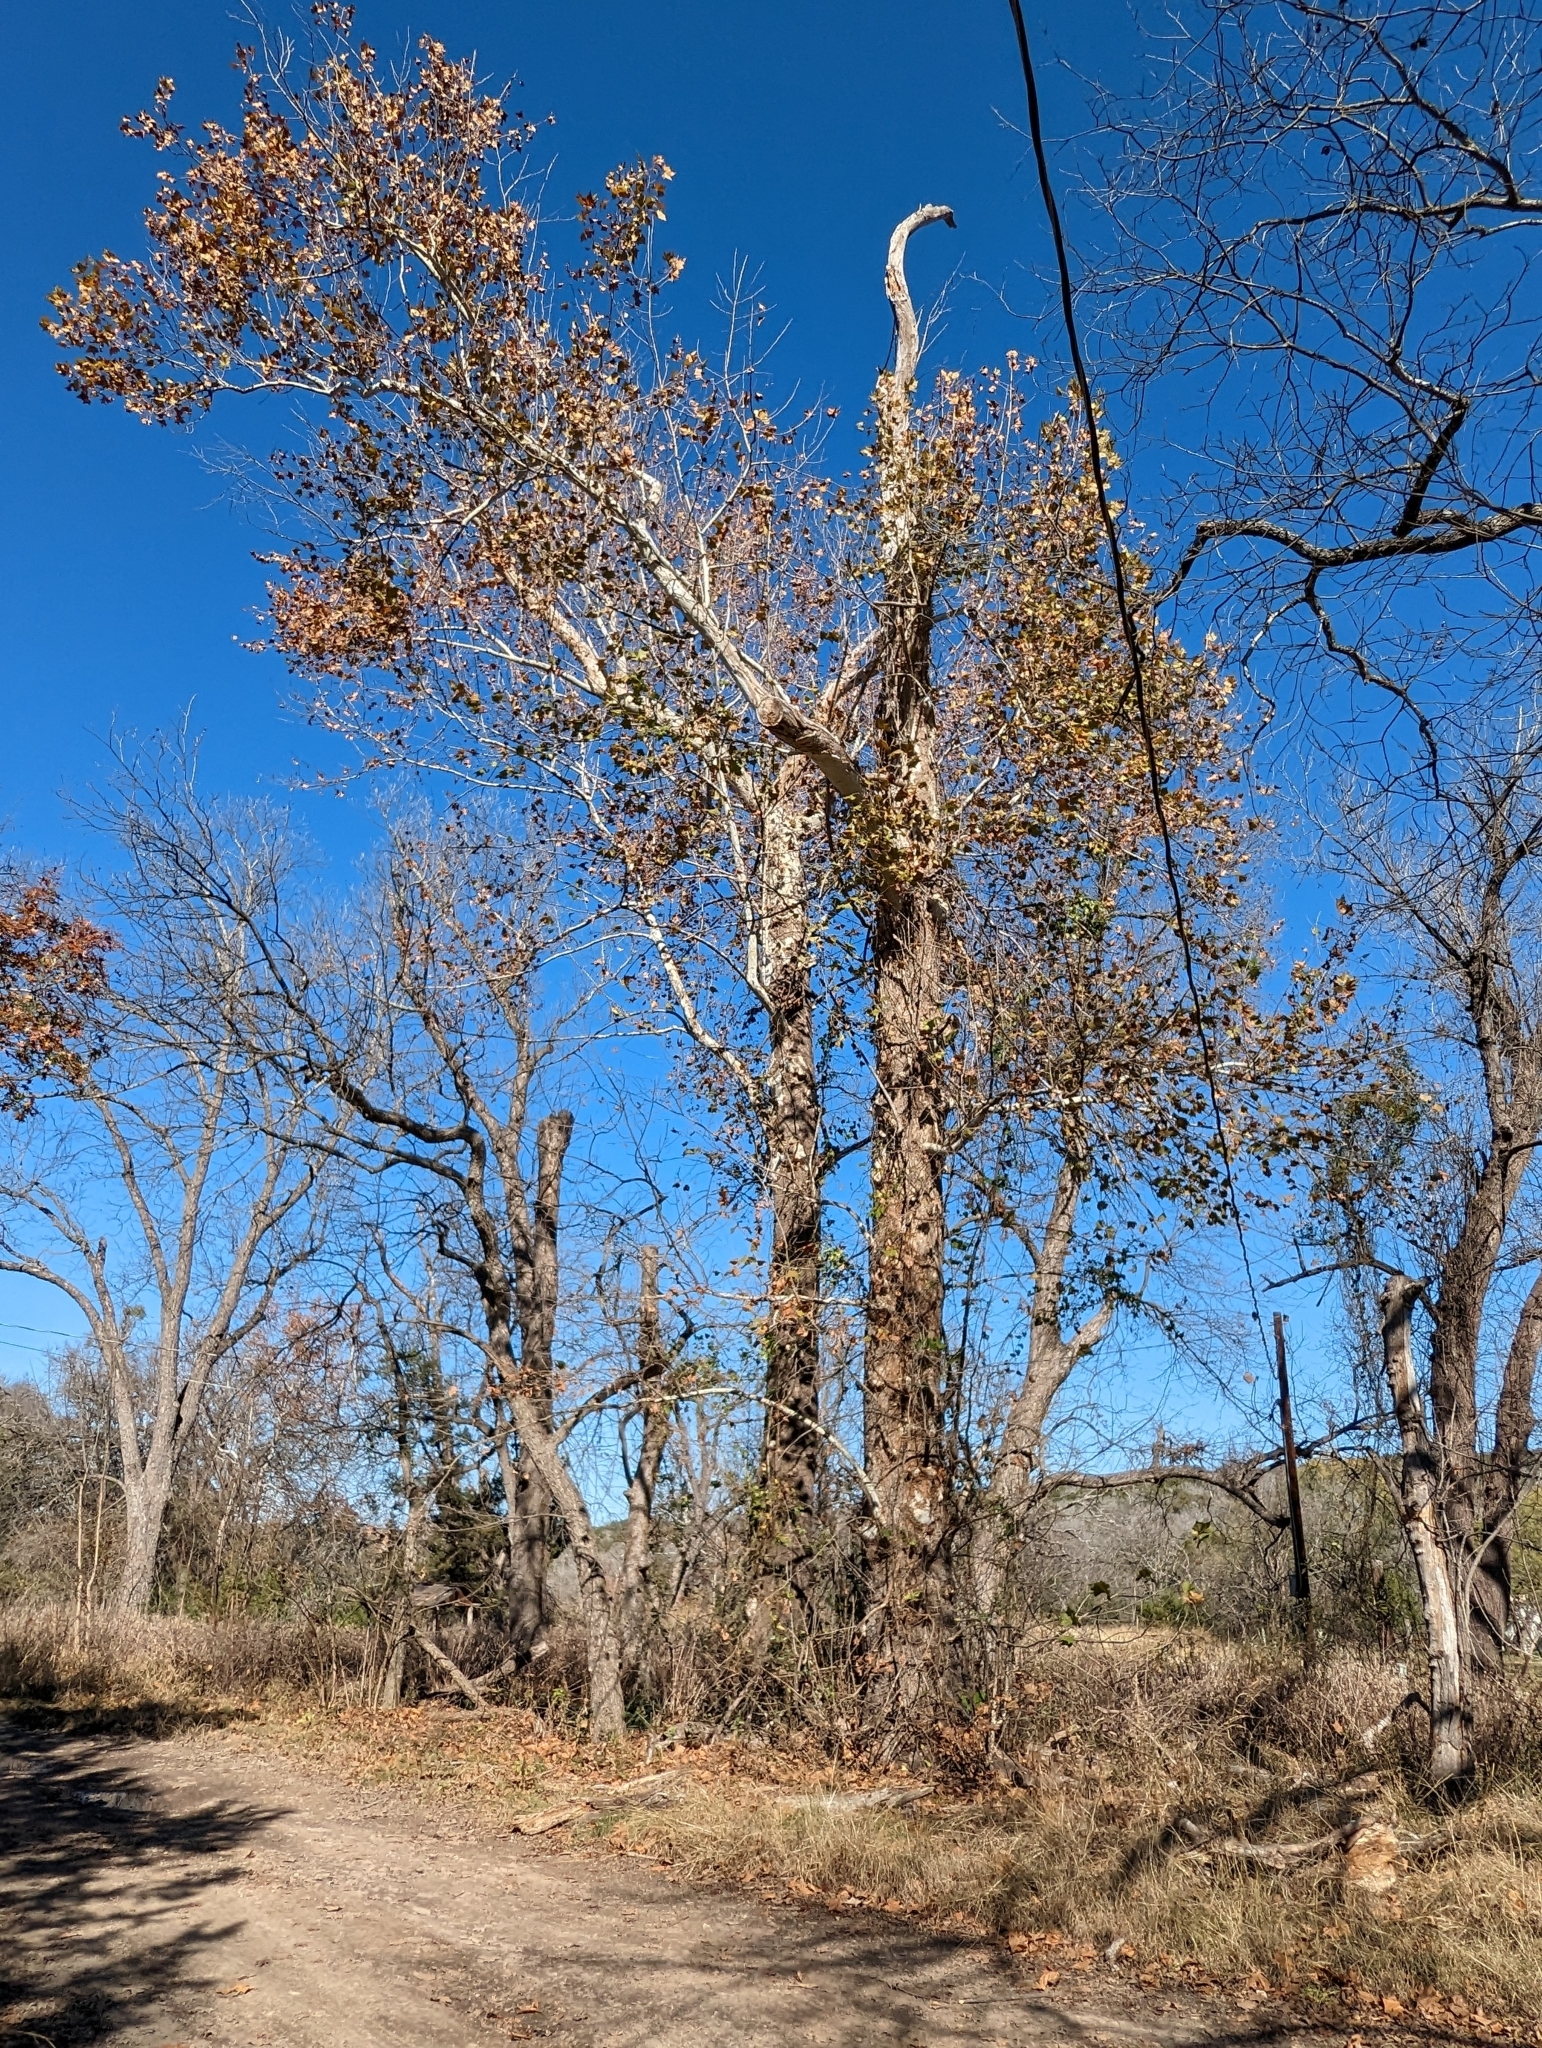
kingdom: Plantae
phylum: Tracheophyta
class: Magnoliopsida
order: Proteales
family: Platanaceae
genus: Platanus
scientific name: Platanus occidentalis
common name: American sycamore
